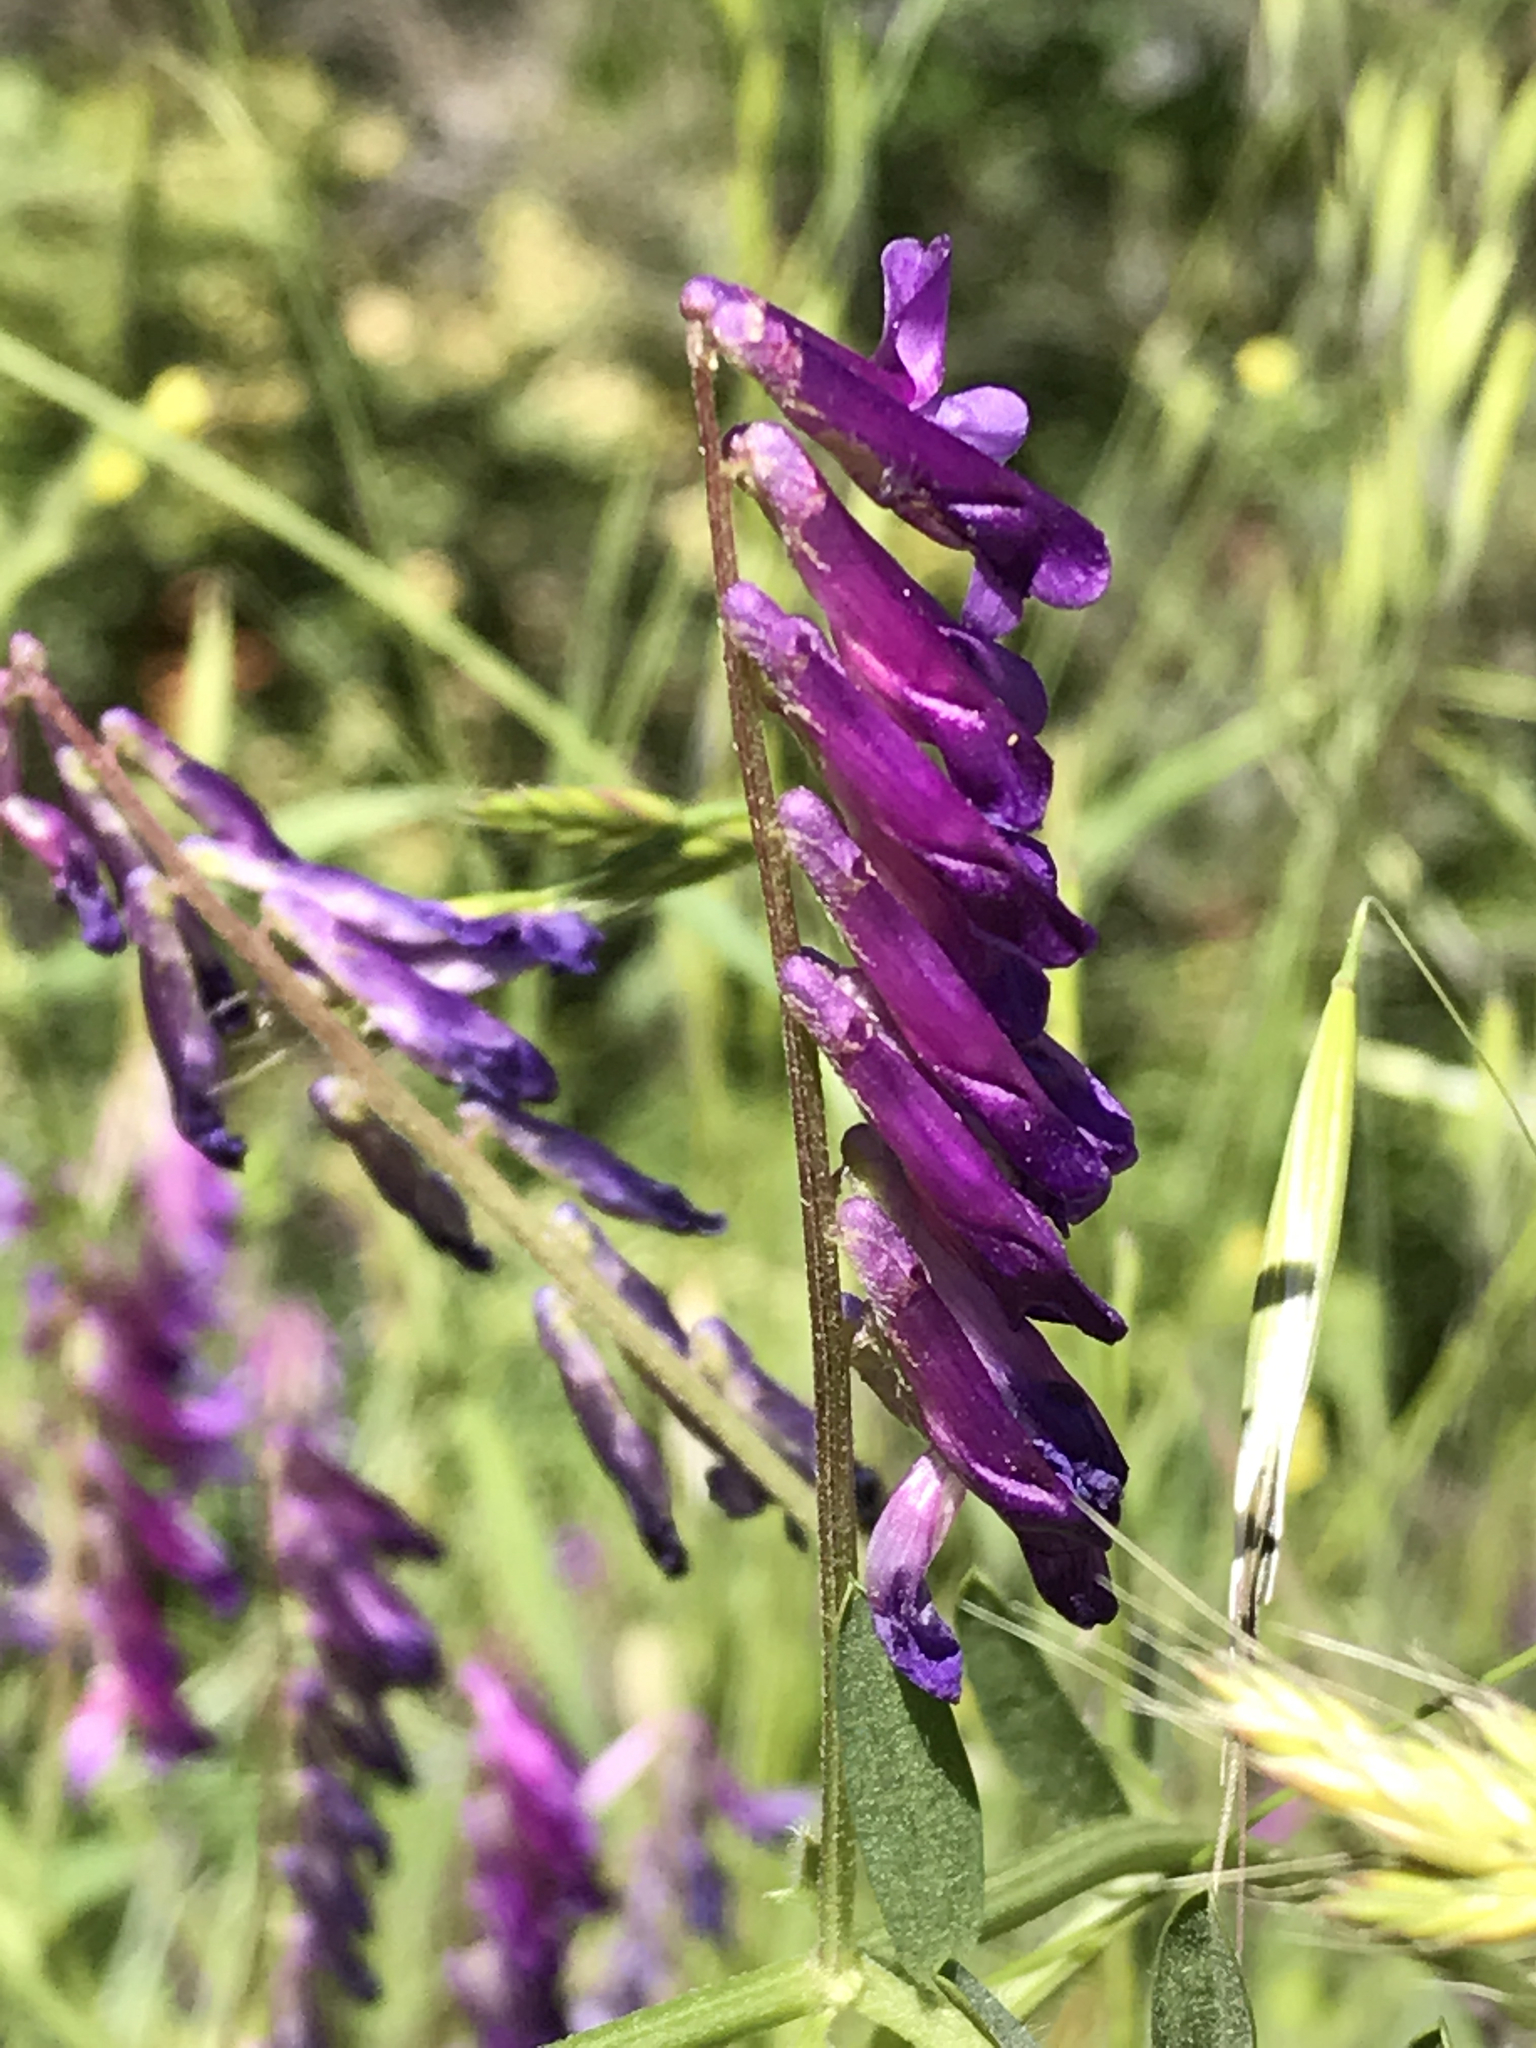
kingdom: Plantae
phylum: Tracheophyta
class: Magnoliopsida
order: Fabales
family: Fabaceae
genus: Vicia
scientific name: Vicia villosa
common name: Fodder vetch
